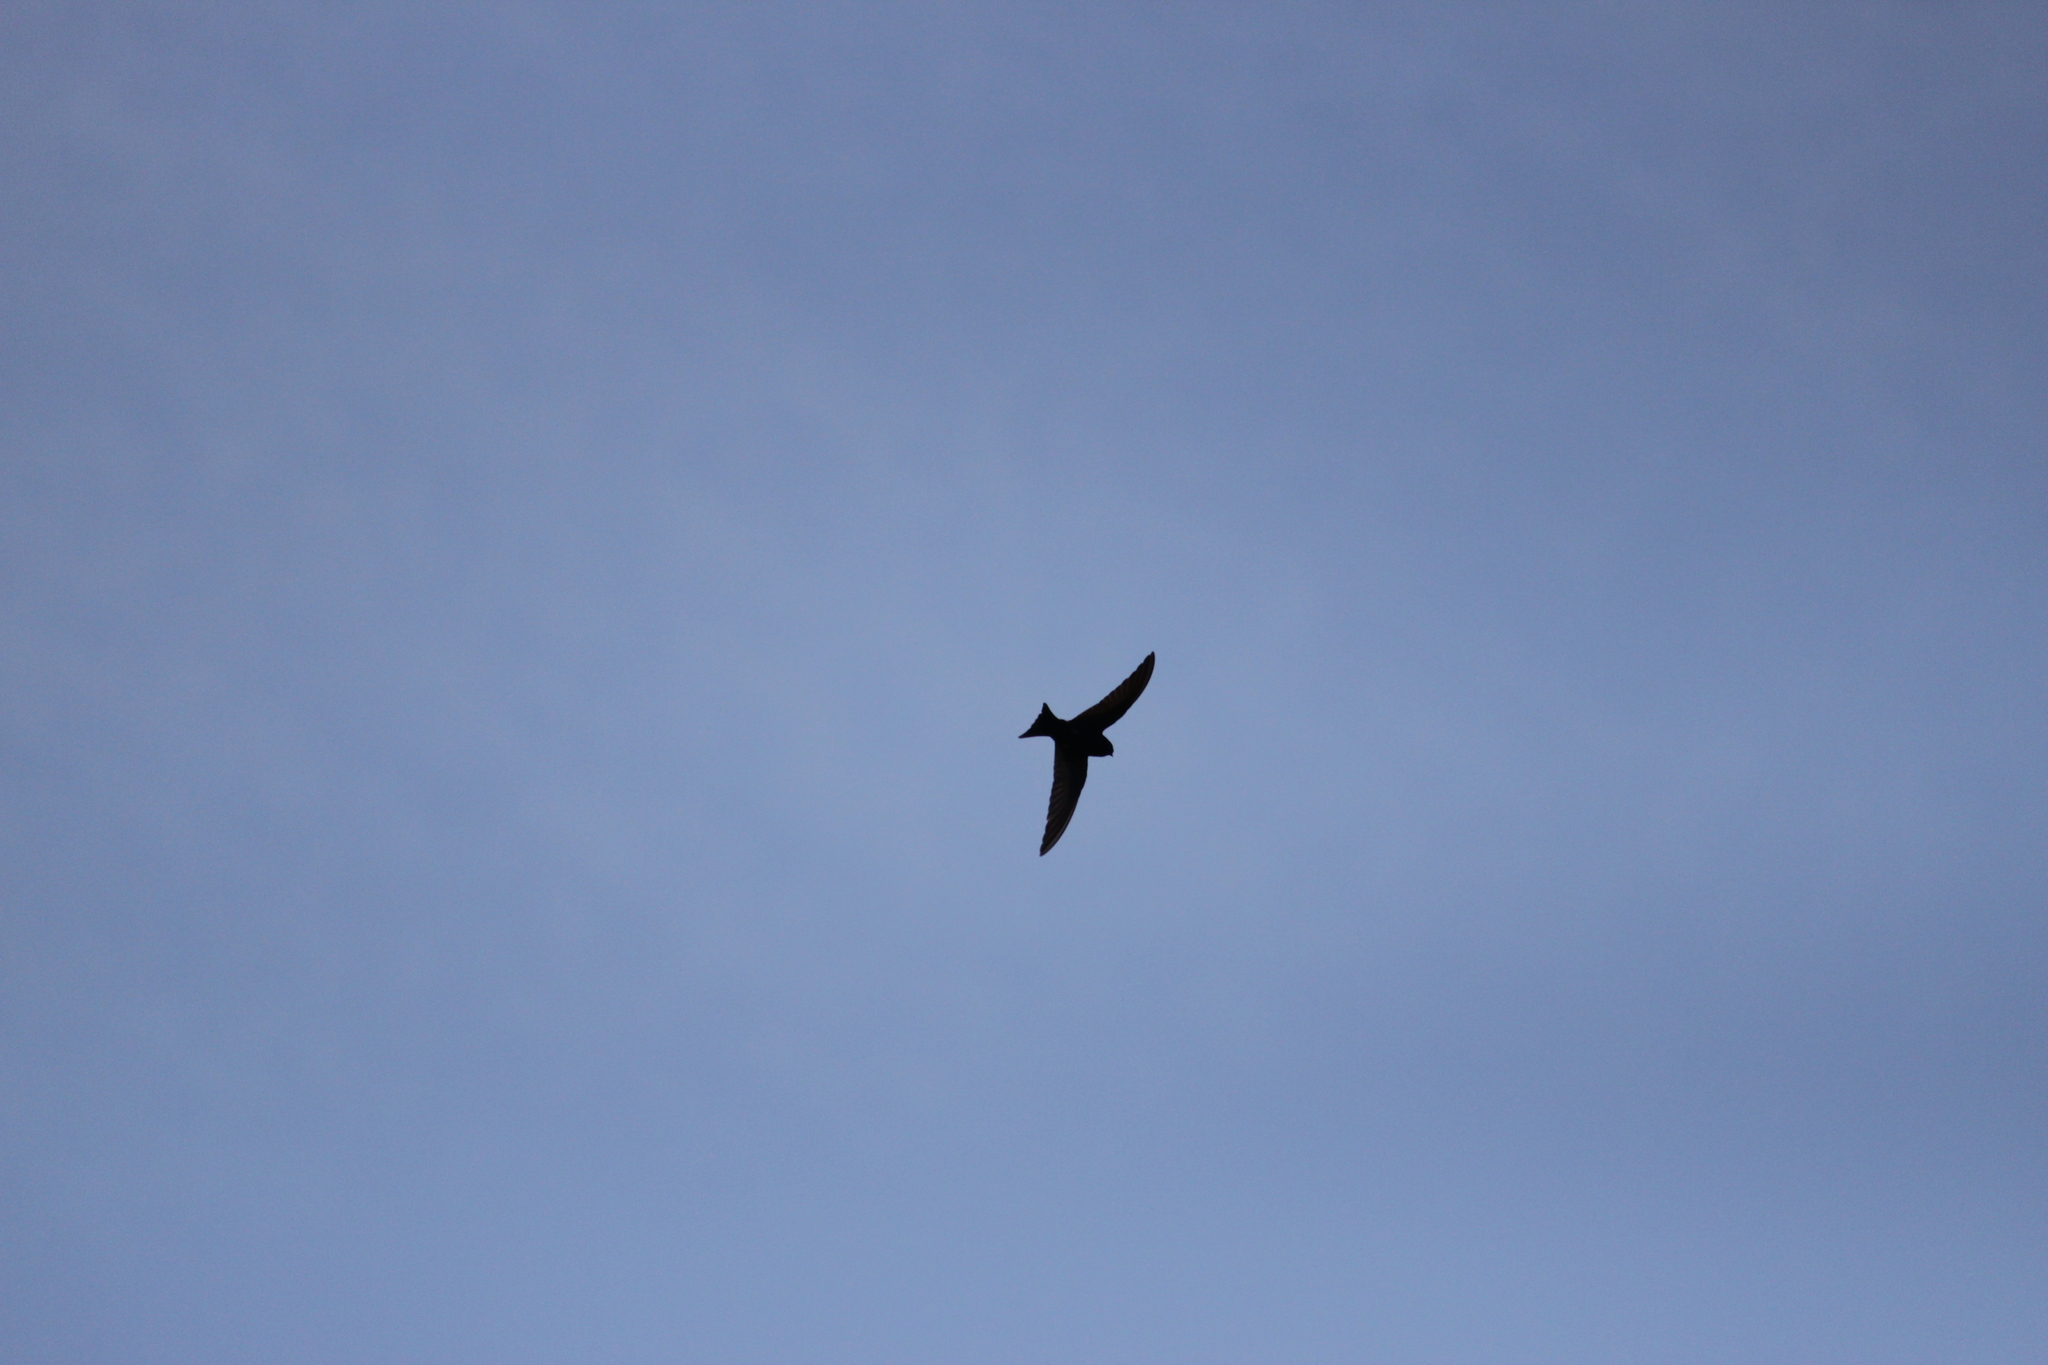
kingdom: Animalia
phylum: Chordata
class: Aves
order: Passeriformes
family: Hirundinidae
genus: Psalidoprocne
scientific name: Psalidoprocne pristoptera
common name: Black saw-wing
